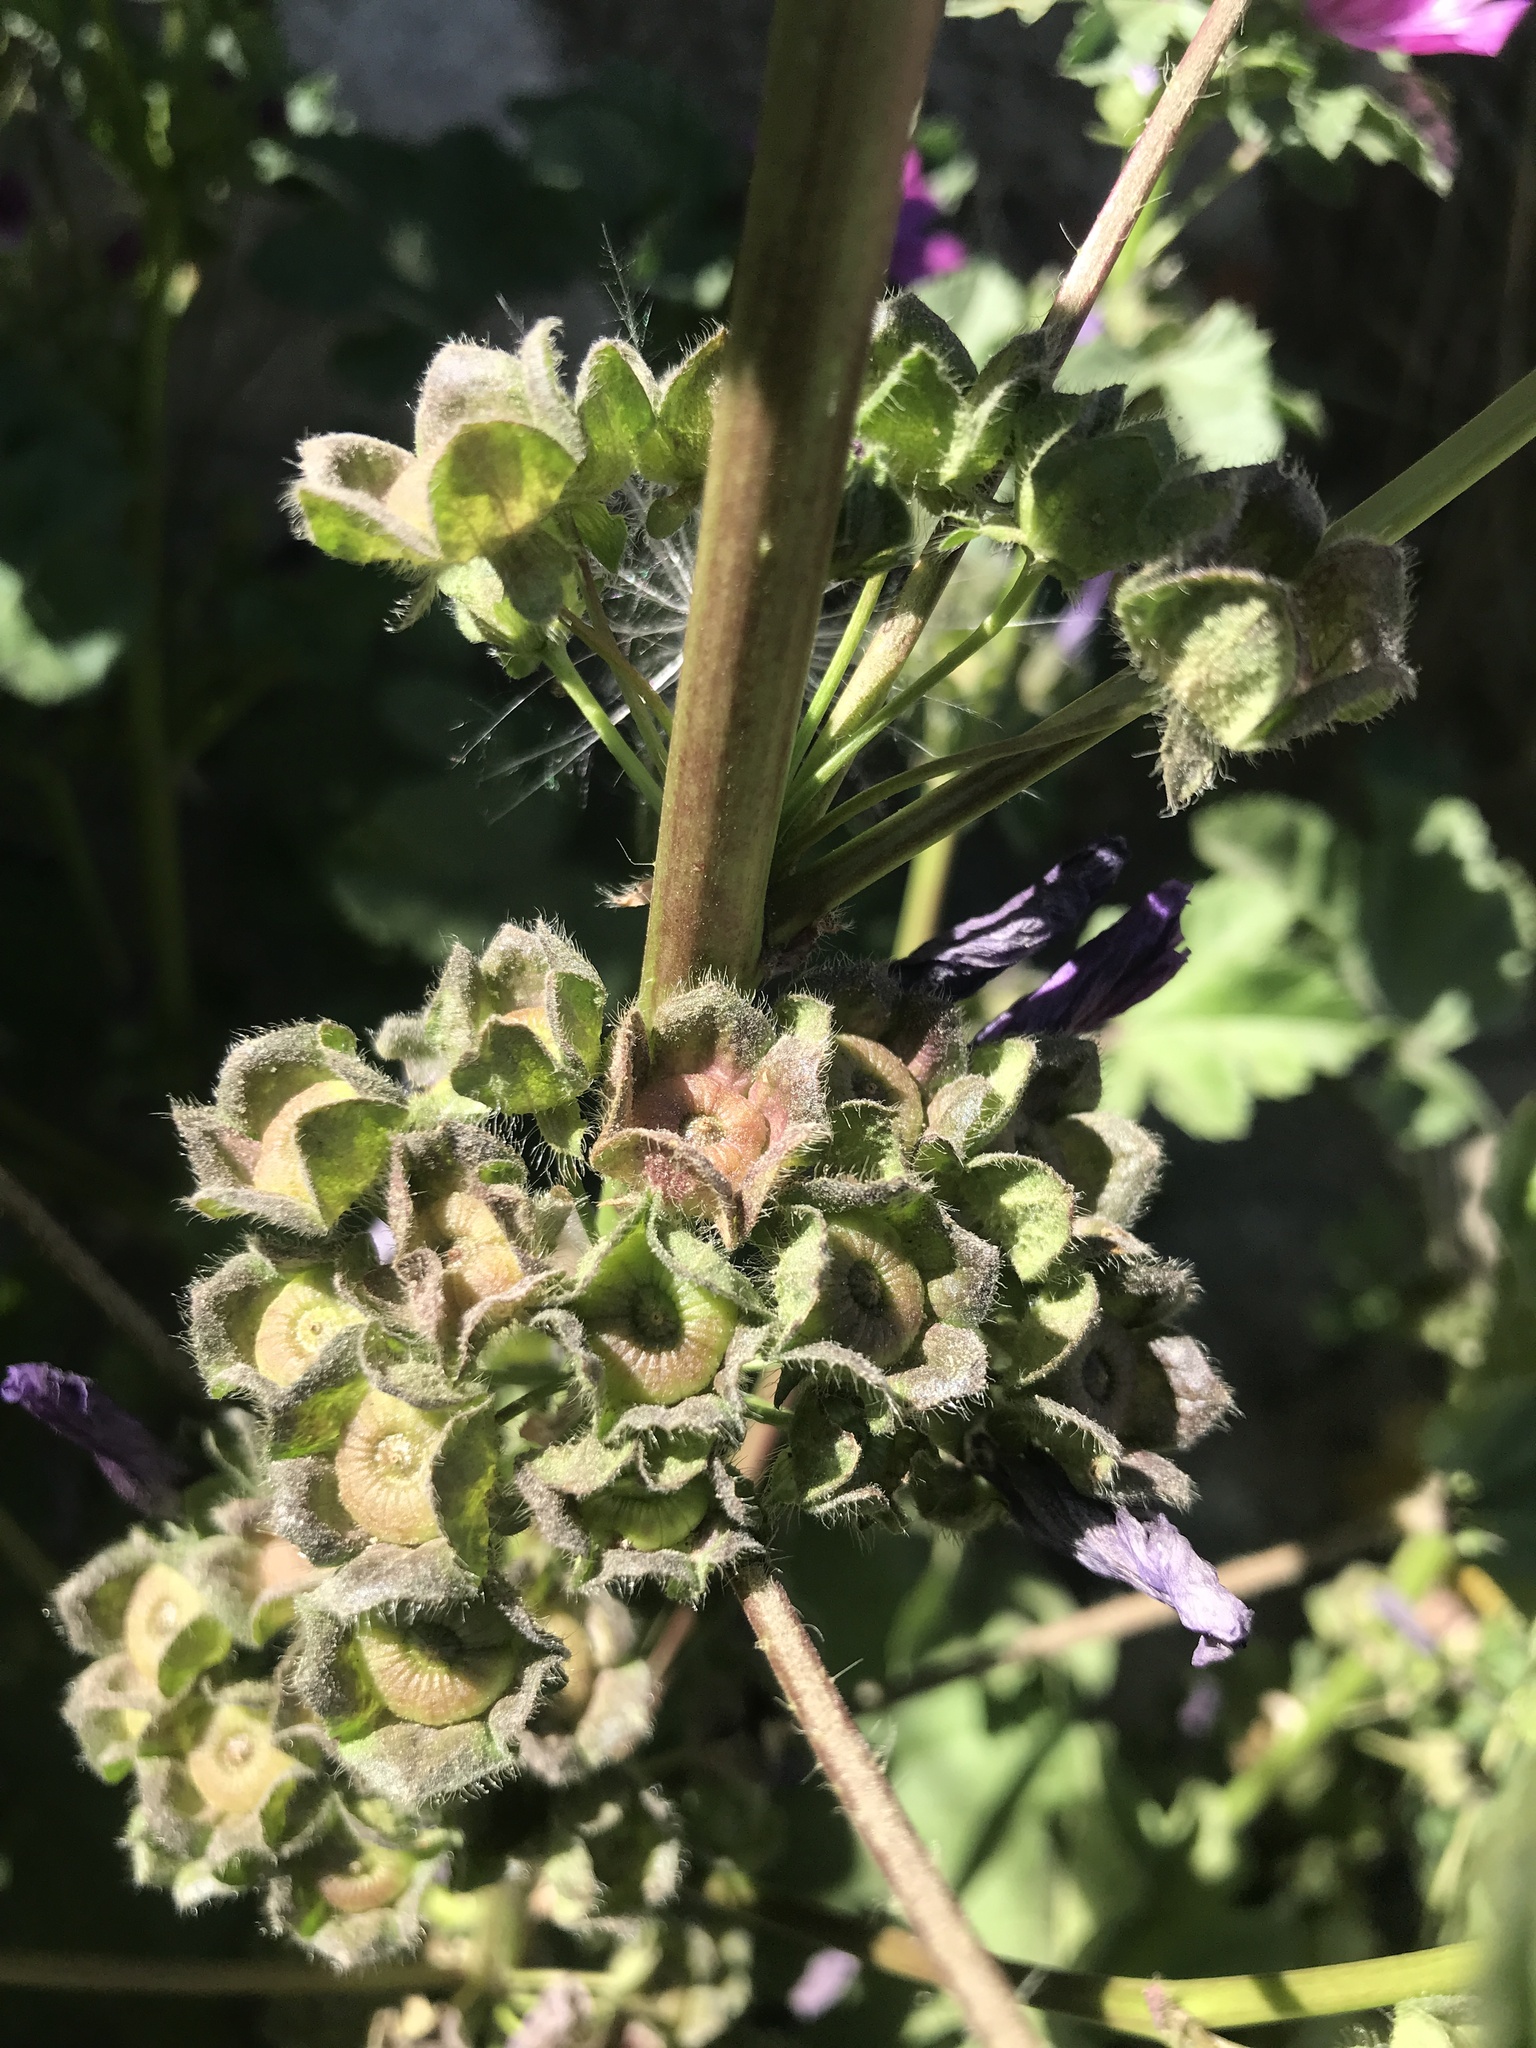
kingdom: Plantae
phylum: Tracheophyta
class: Magnoliopsida
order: Malvales
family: Malvaceae
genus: Malva
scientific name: Malva sylvestris
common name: Common mallow
